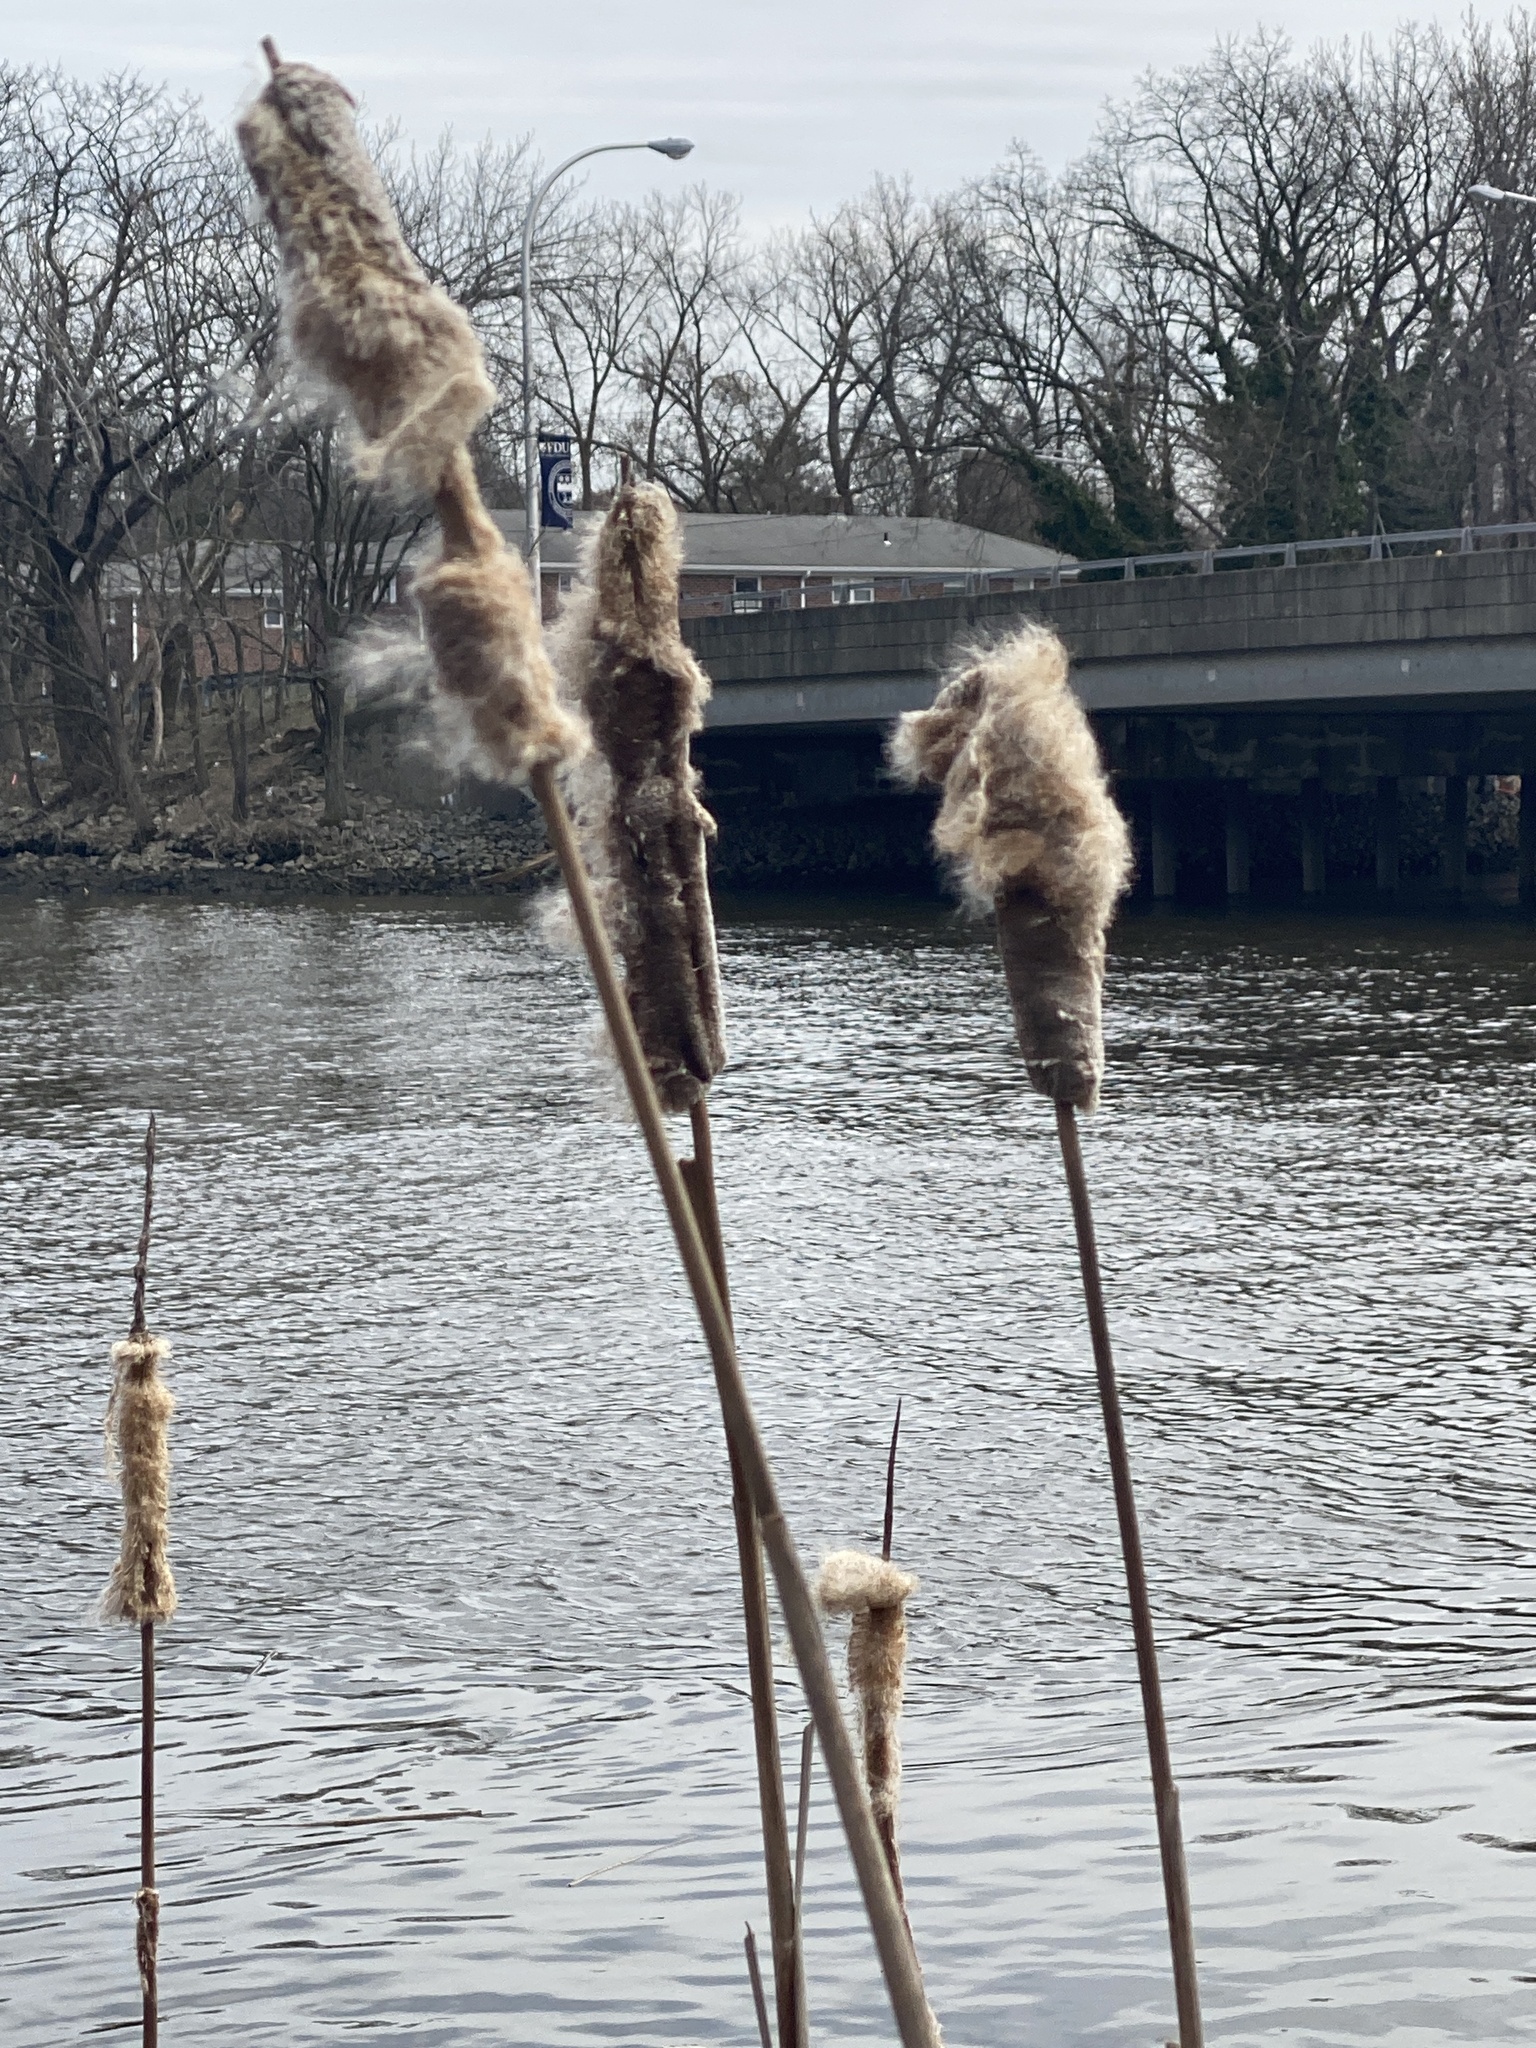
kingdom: Plantae
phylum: Tracheophyta
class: Liliopsida
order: Poales
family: Typhaceae
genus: Typha
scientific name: Typha
